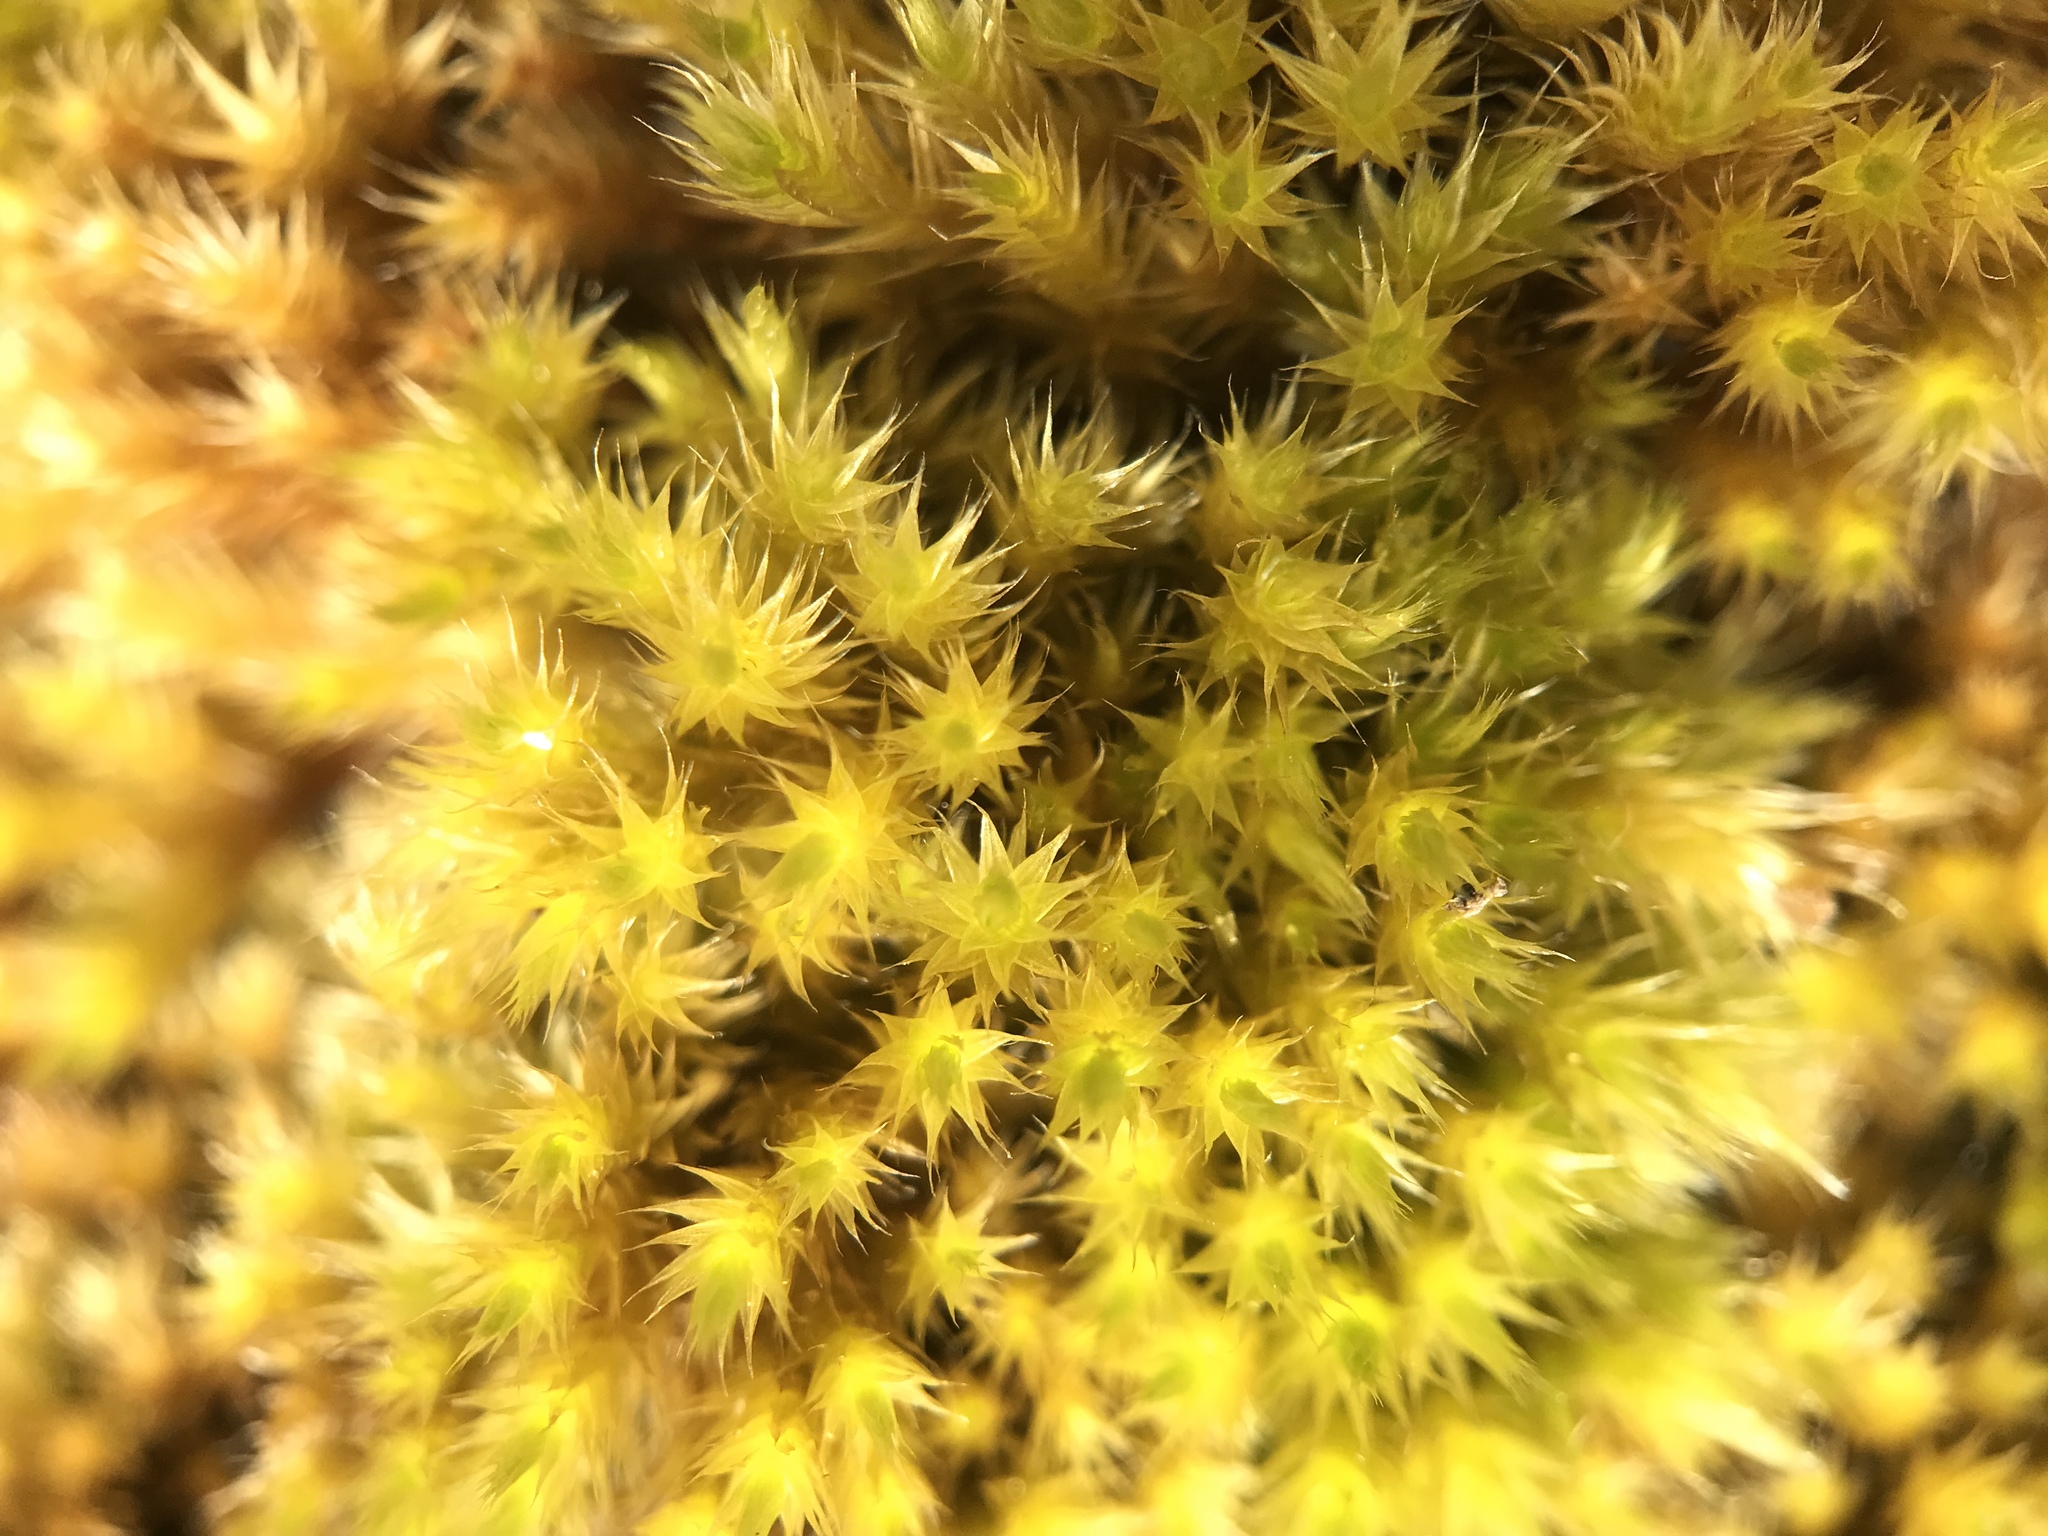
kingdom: Plantae
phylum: Bryophyta
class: Bryopsida
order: Hypnales
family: Brachytheciaceae
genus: Homalothecium
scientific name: Homalothecium sericeum
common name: Silky wall feather-moss
